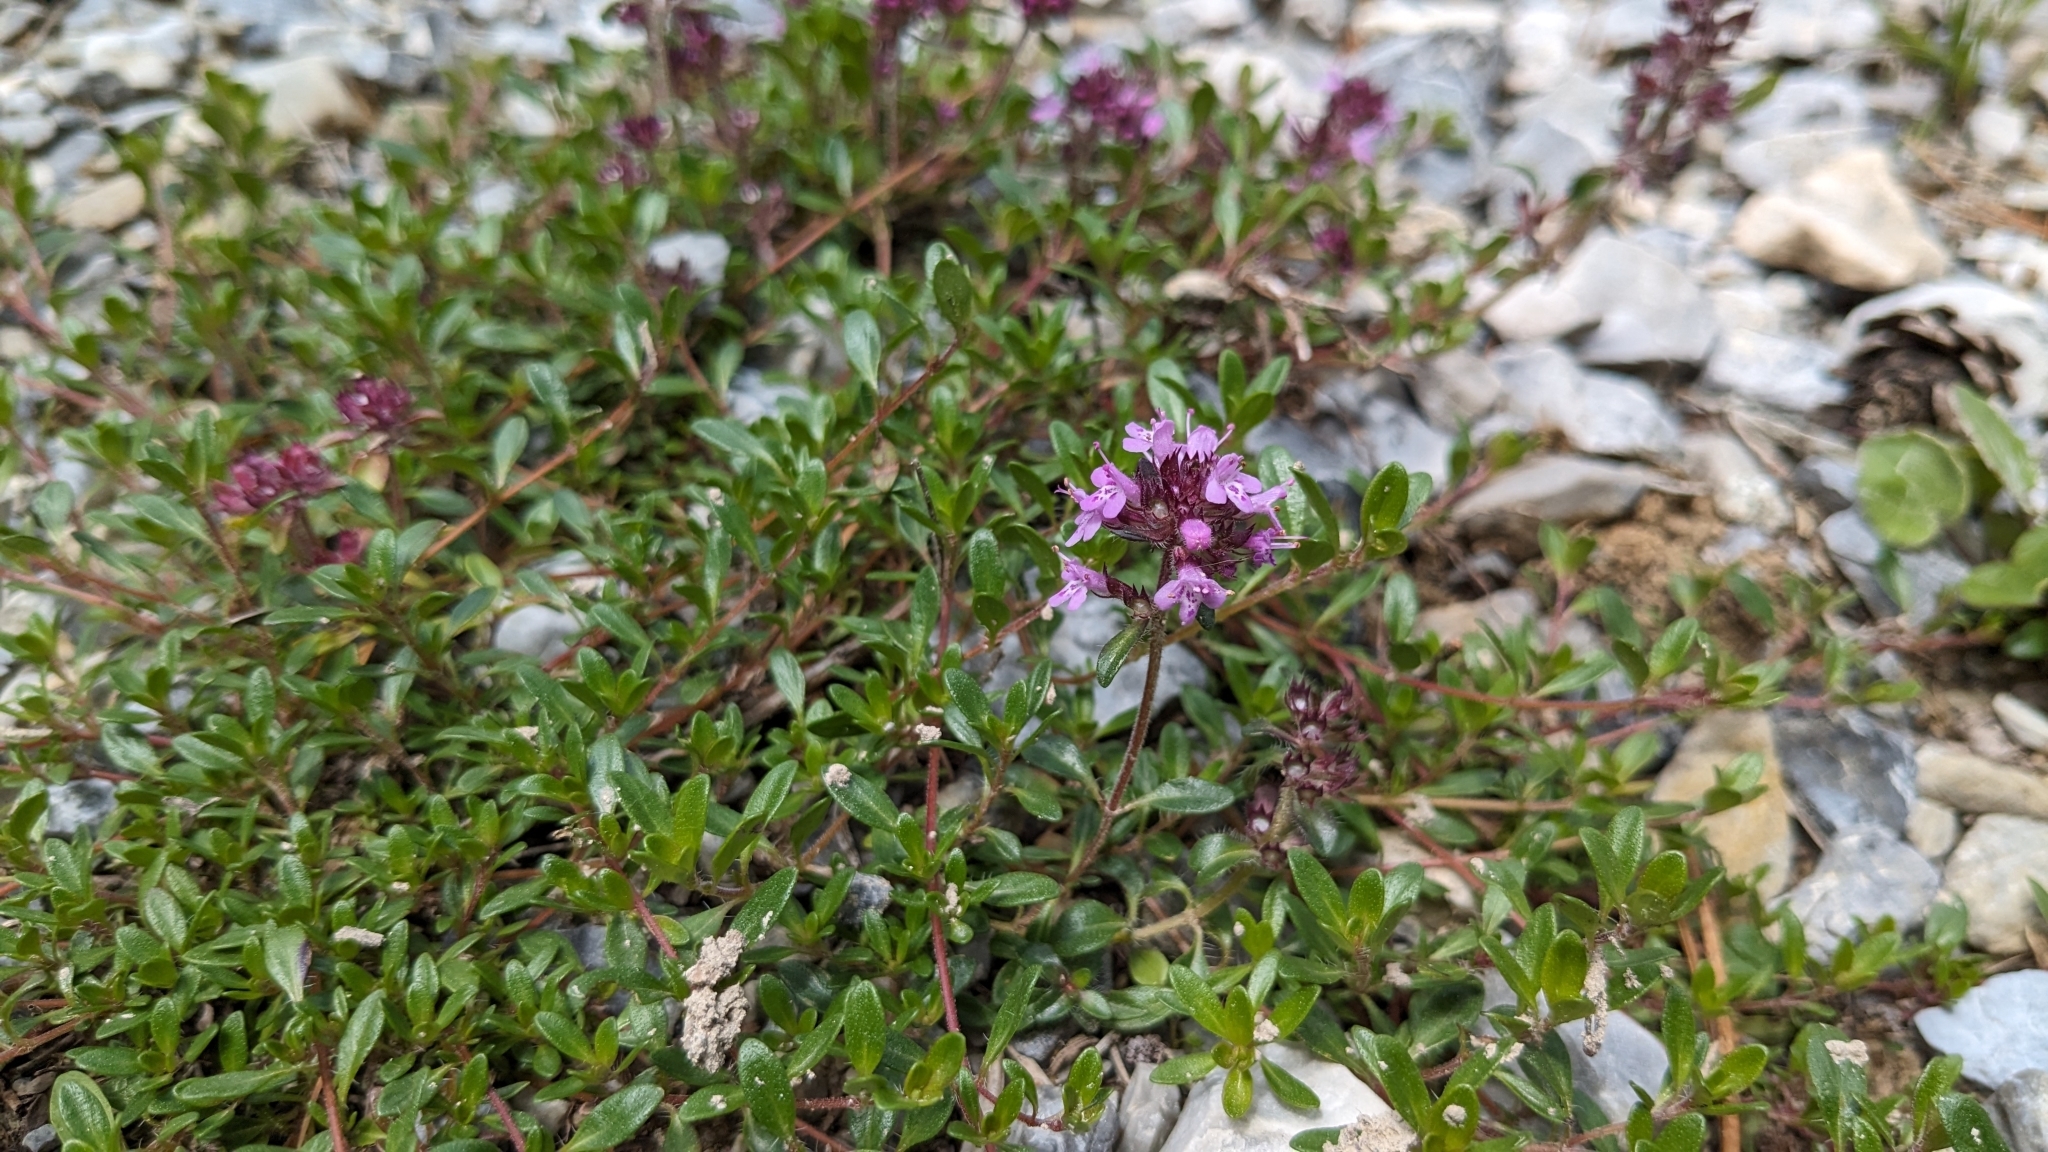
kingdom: Plantae
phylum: Tracheophyta
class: Magnoliopsida
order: Lamiales
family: Lamiaceae
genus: Thymus
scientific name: Thymus pulegioides
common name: Large thyme
